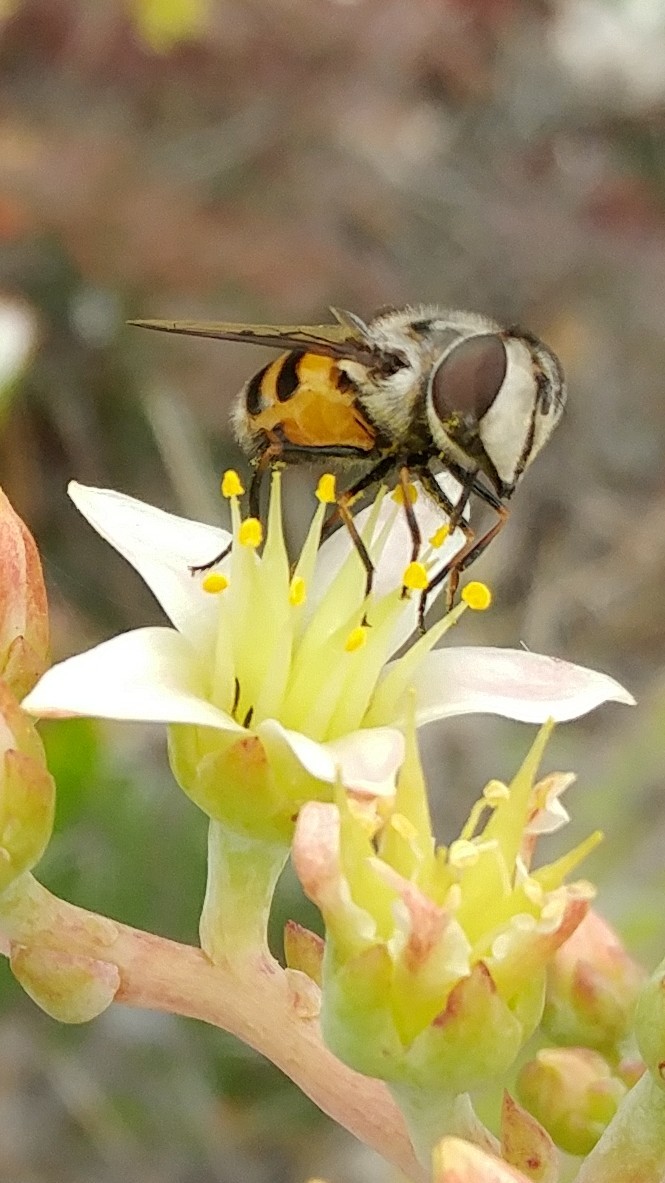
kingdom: Animalia
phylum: Arthropoda
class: Insecta
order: Diptera
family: Syrphidae
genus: Copestylum
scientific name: Copestylum avidum
